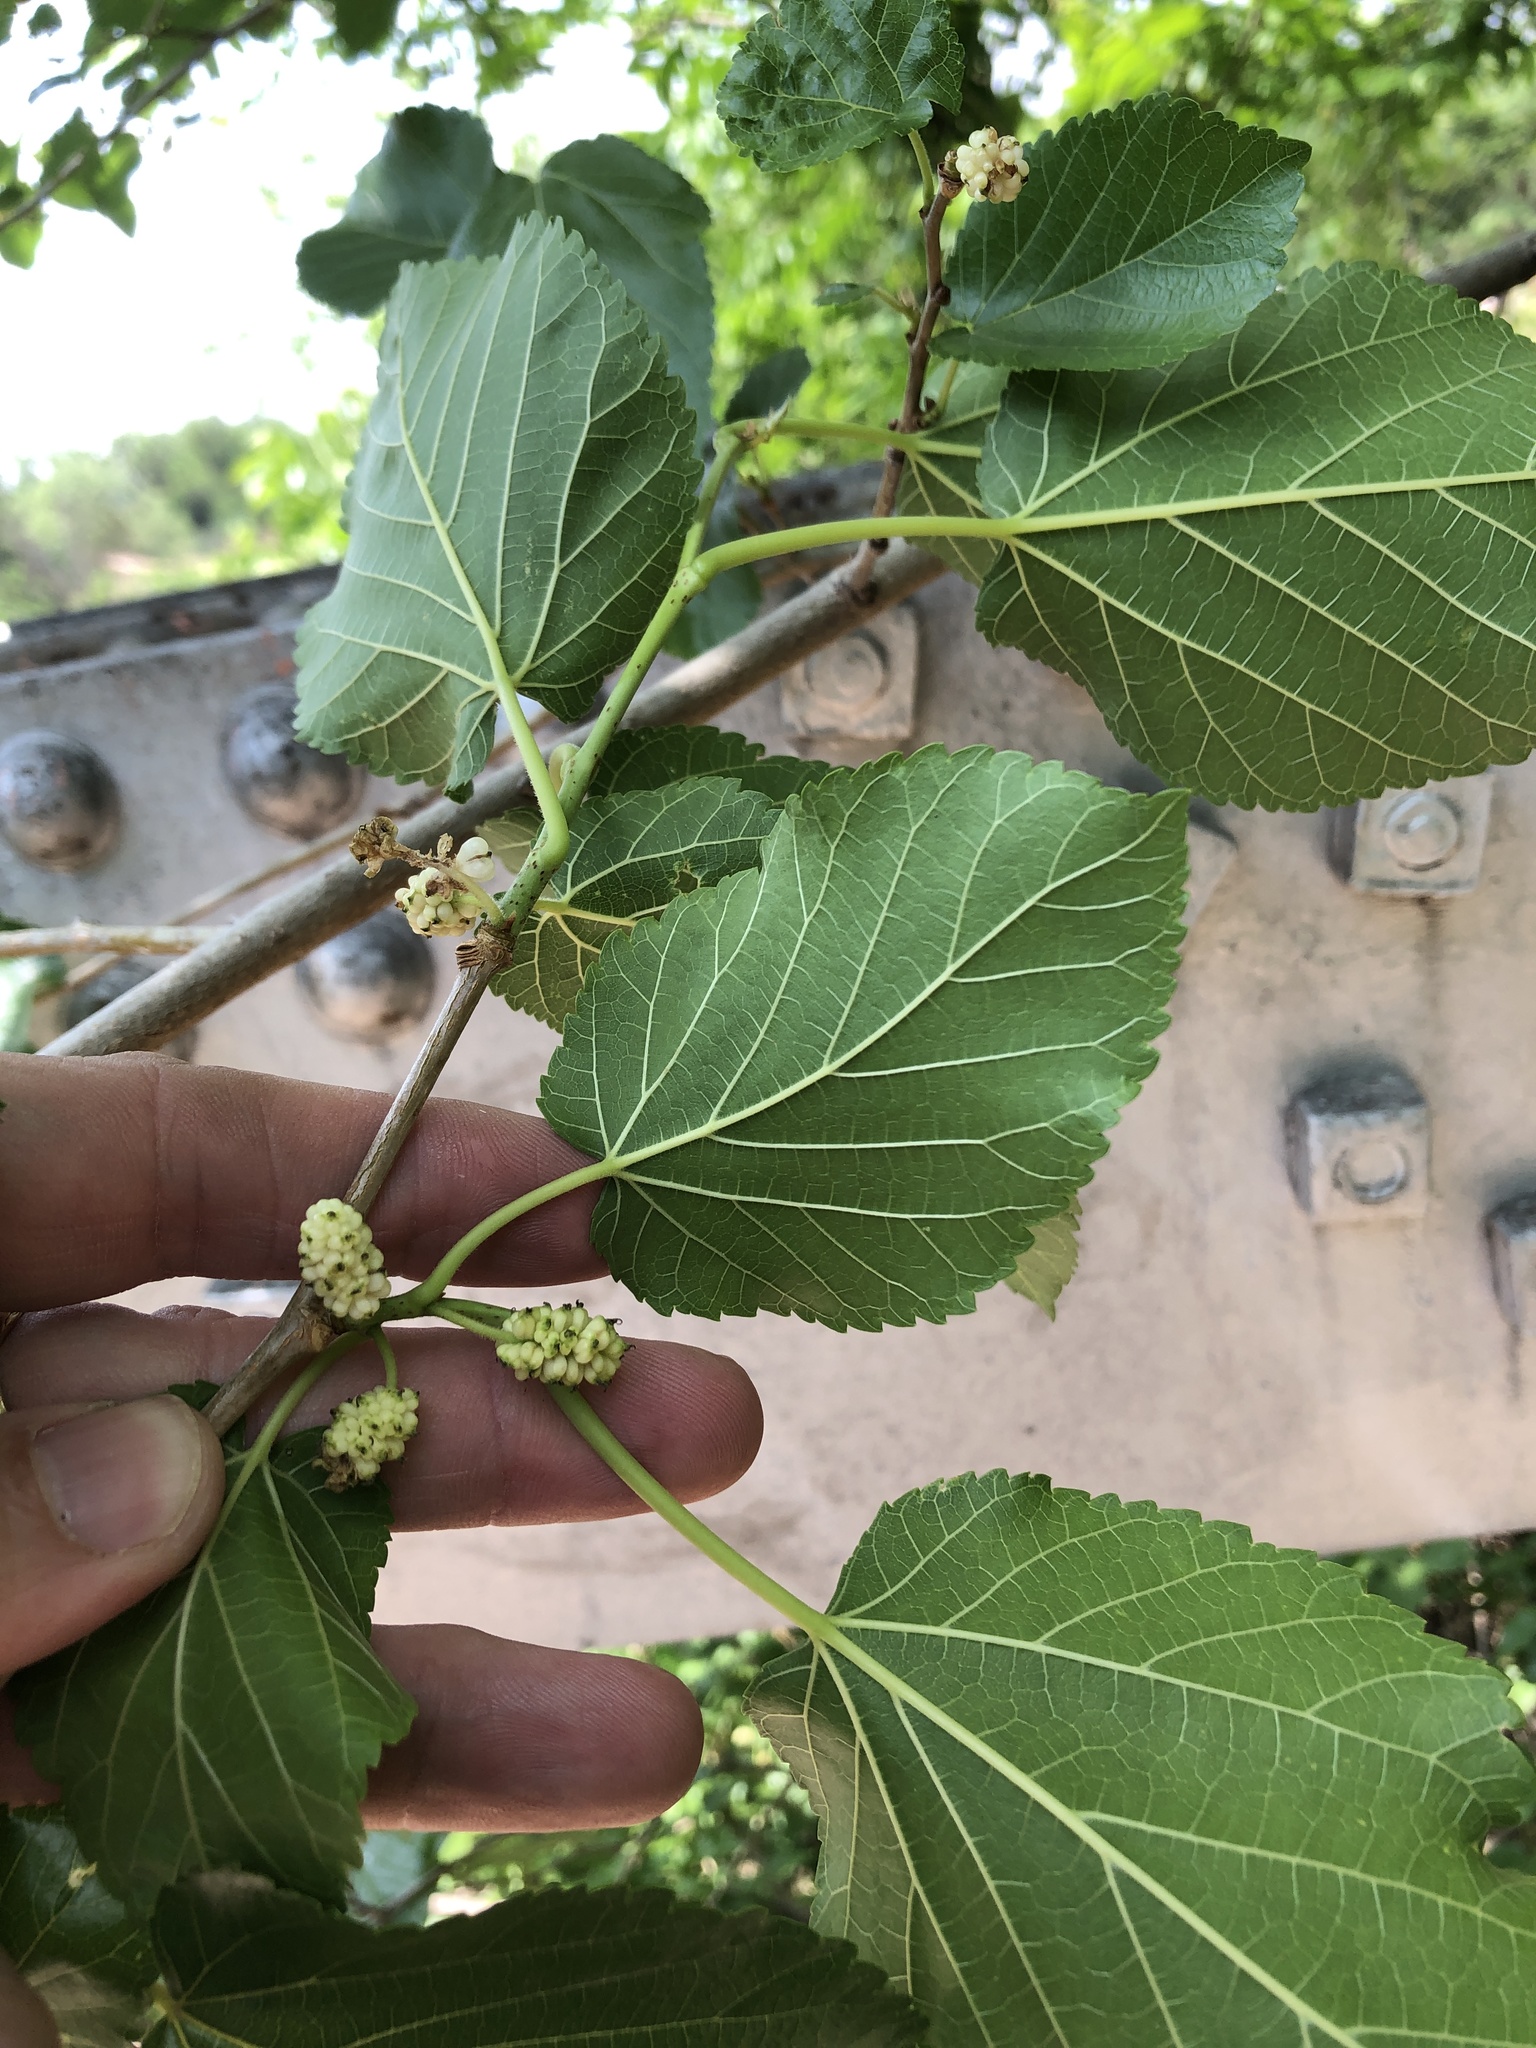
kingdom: Plantae
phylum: Tracheophyta
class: Magnoliopsida
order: Rosales
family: Moraceae
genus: Morus
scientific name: Morus alba
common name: White mulberry
